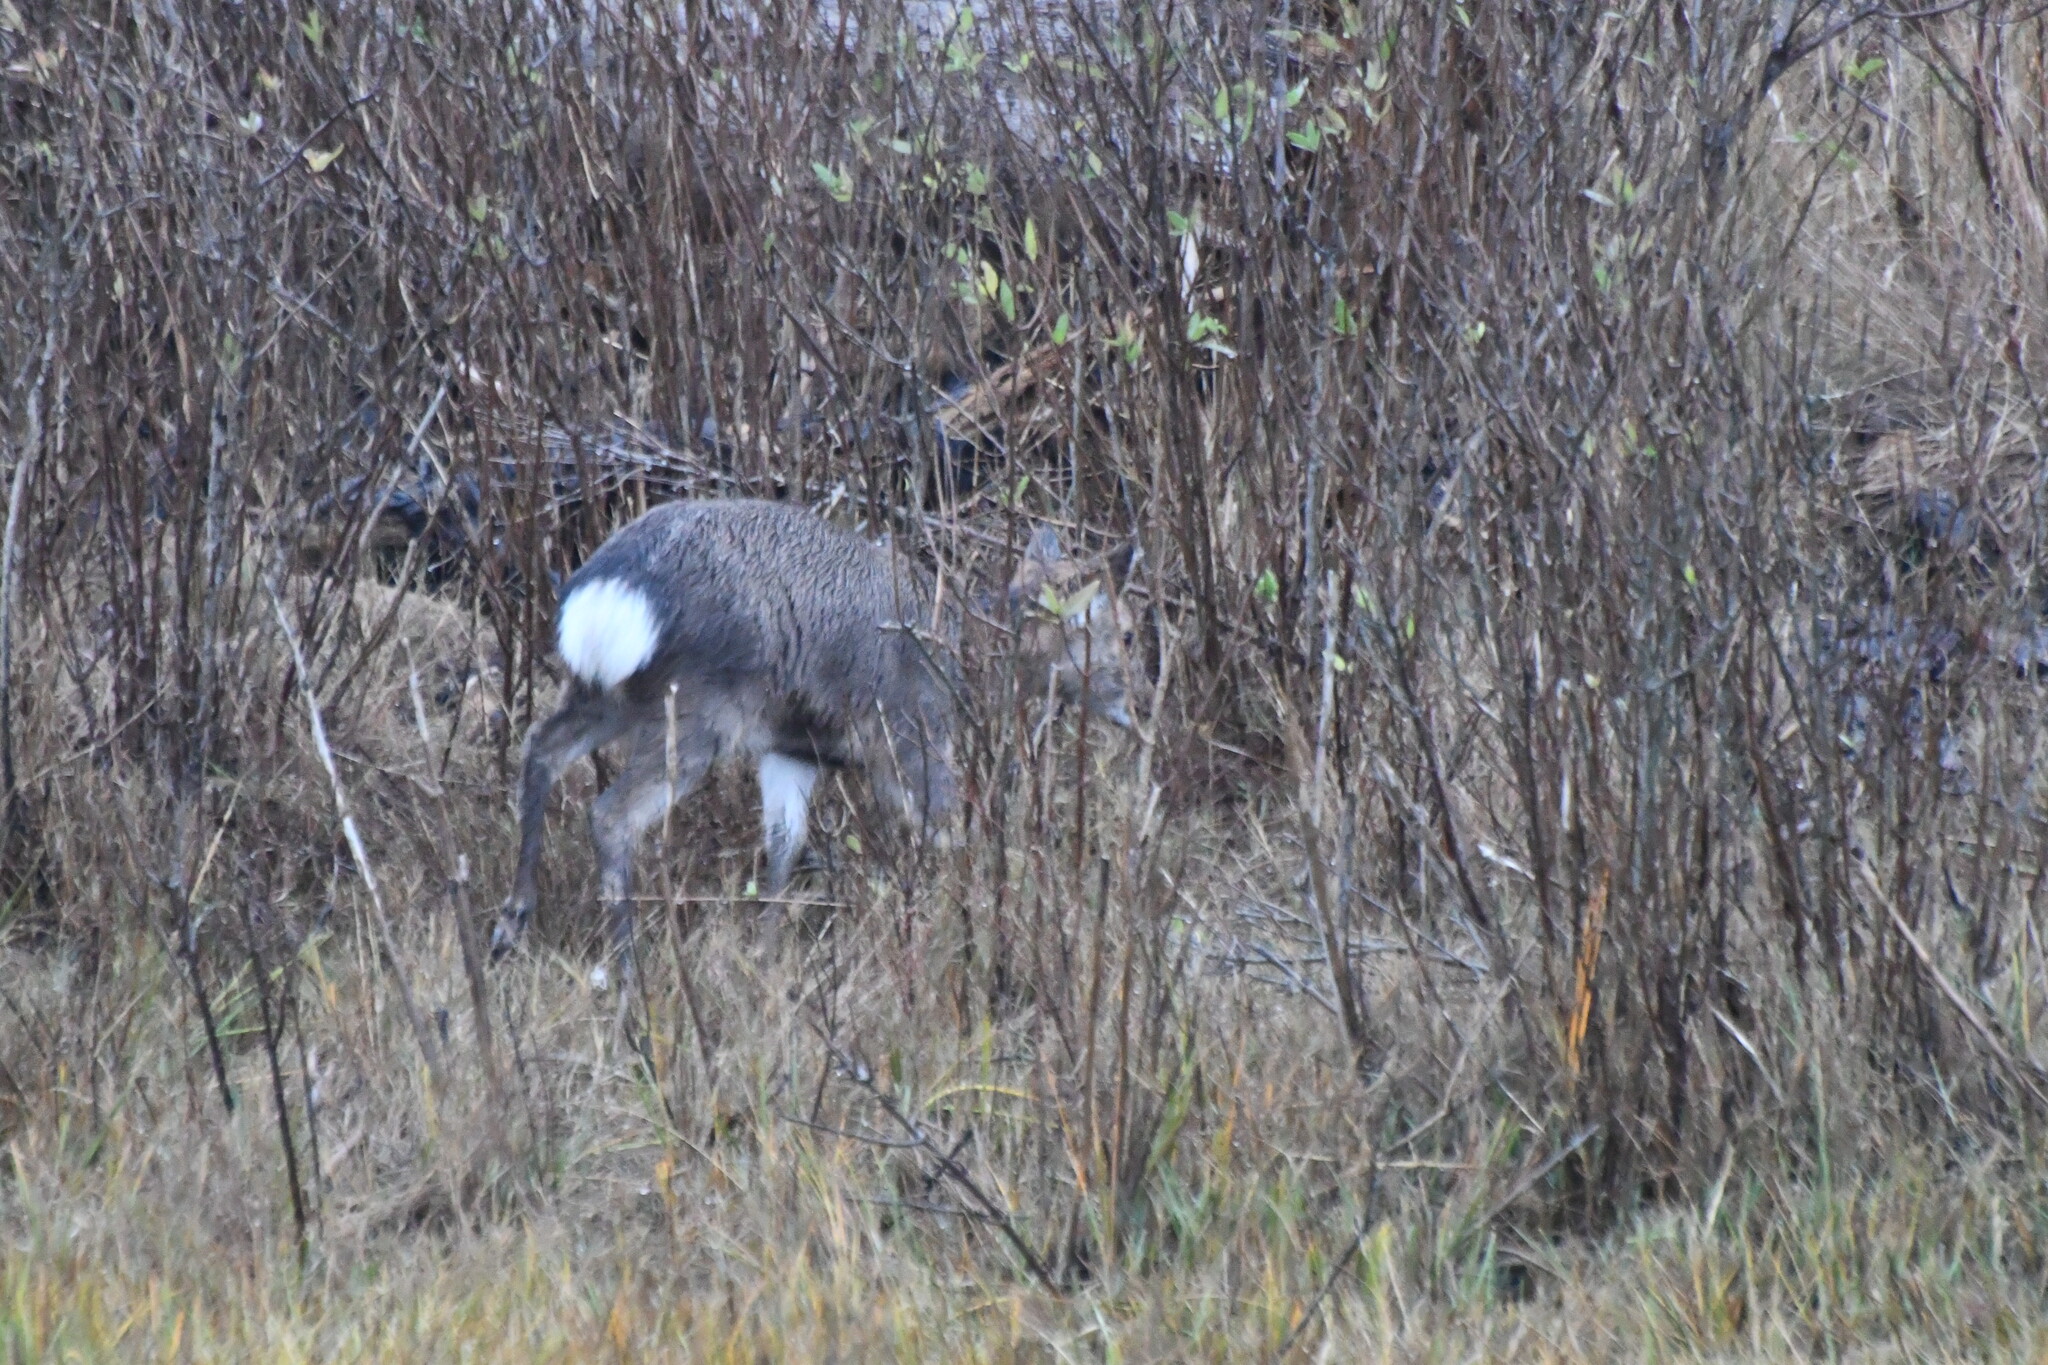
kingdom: Animalia
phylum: Chordata
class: Mammalia
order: Artiodactyla
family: Cervidae
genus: Cervus
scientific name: Cervus nippon
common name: Sika deer
